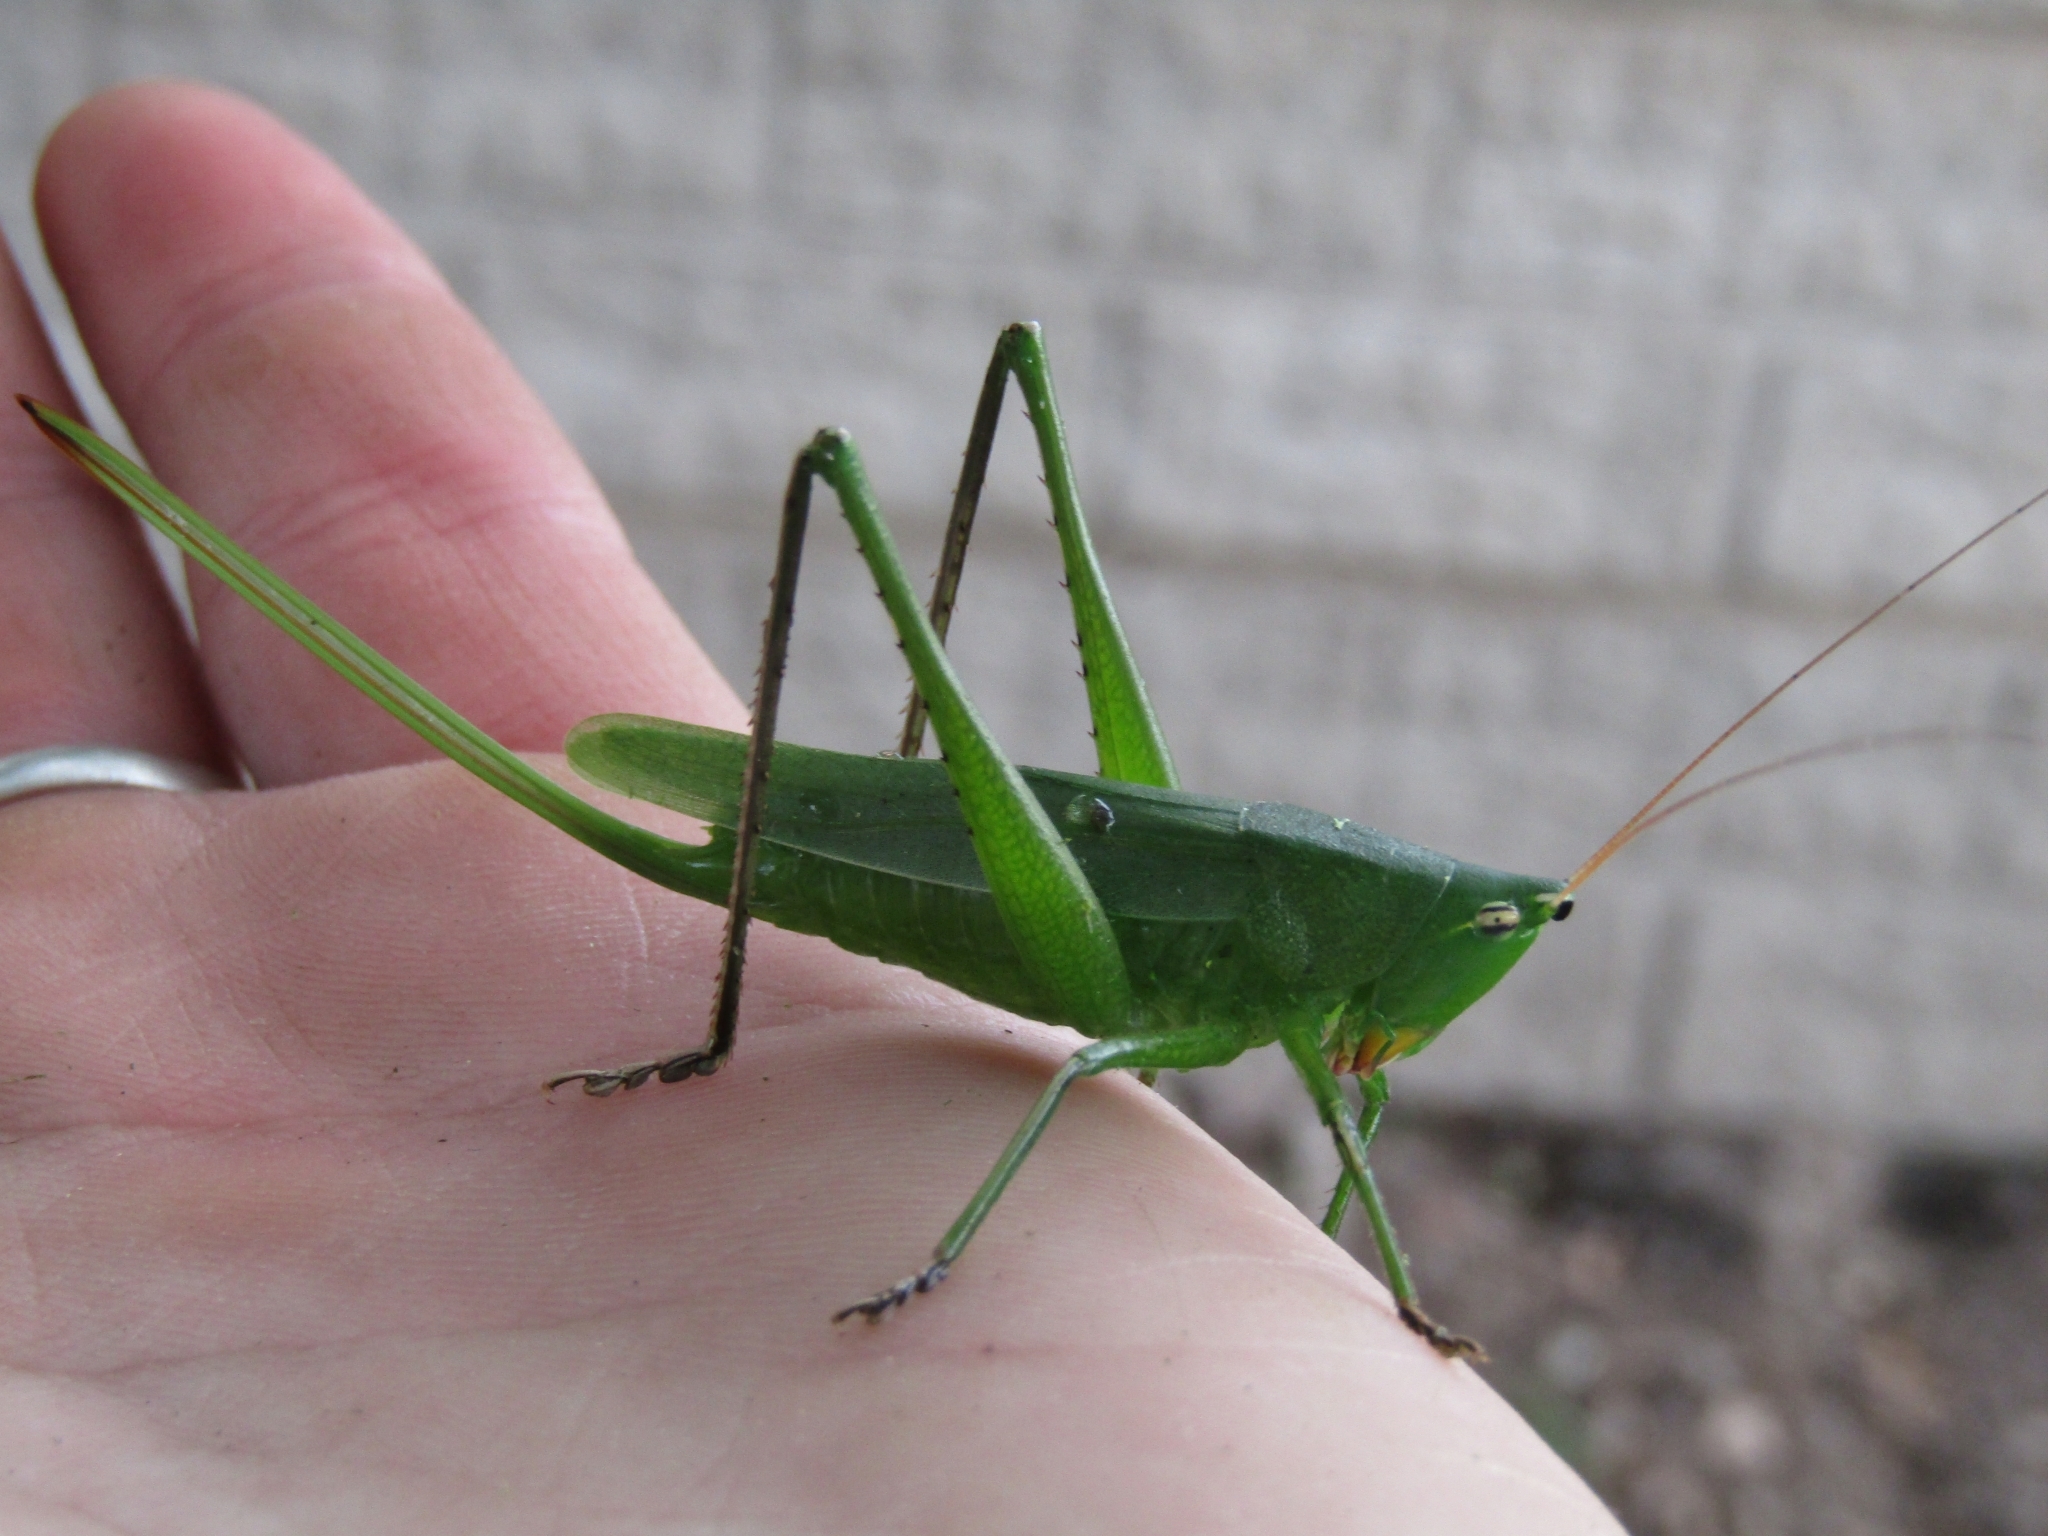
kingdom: Animalia
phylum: Arthropoda
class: Insecta
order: Orthoptera
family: Tettigoniidae
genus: Neoconocephalus
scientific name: Neoconocephalus brevis
